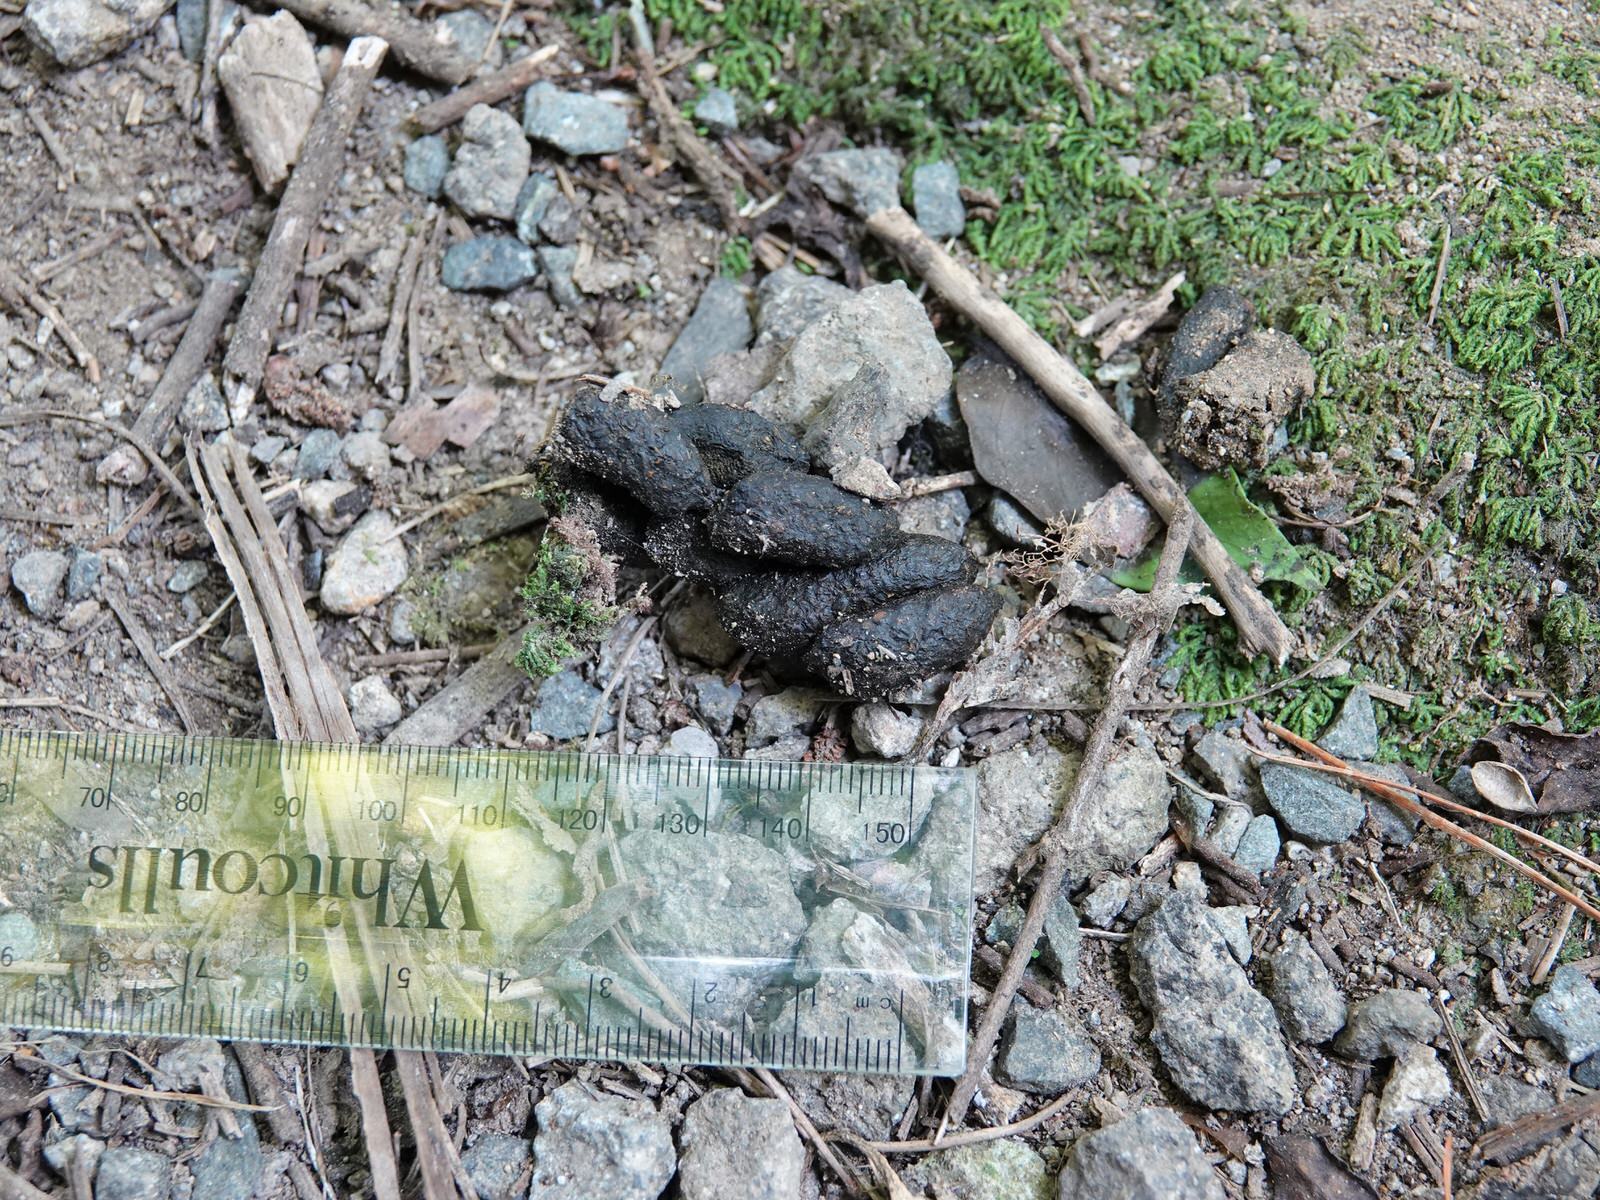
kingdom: Animalia
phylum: Chordata
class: Mammalia
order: Diprotodontia
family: Phalangeridae
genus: Trichosurus
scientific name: Trichosurus vulpecula
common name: Common brushtail
